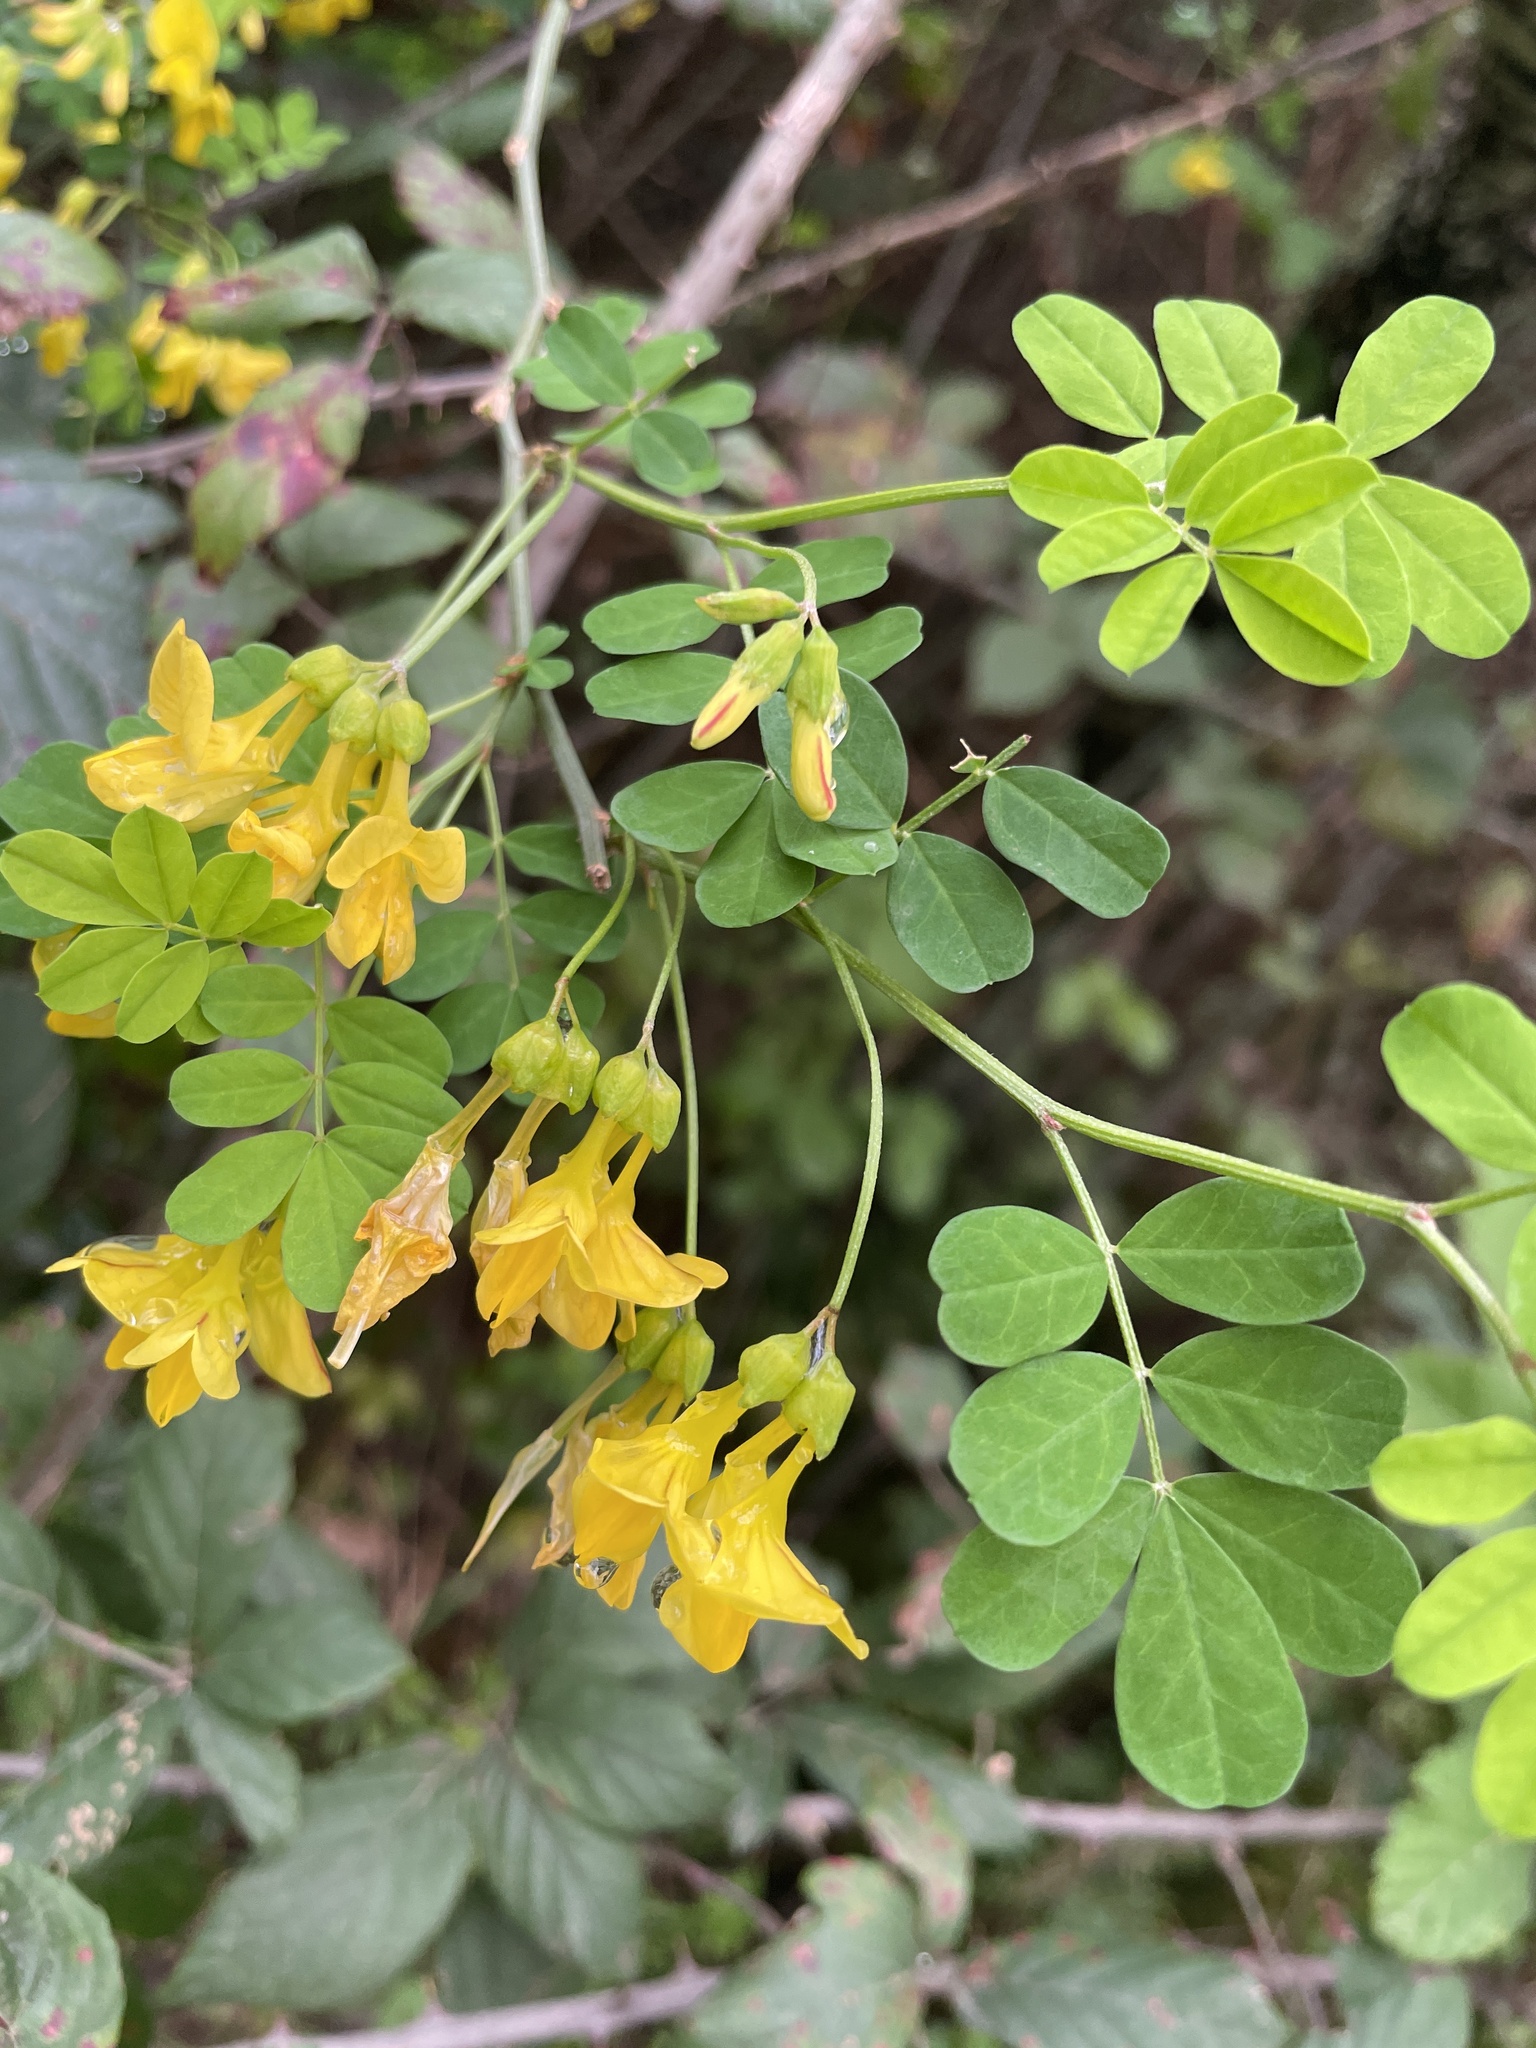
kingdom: Plantae
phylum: Tracheophyta
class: Magnoliopsida
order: Fabales
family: Fabaceae
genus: Hippocrepis
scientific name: Hippocrepis emerus
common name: Scorpion senna
